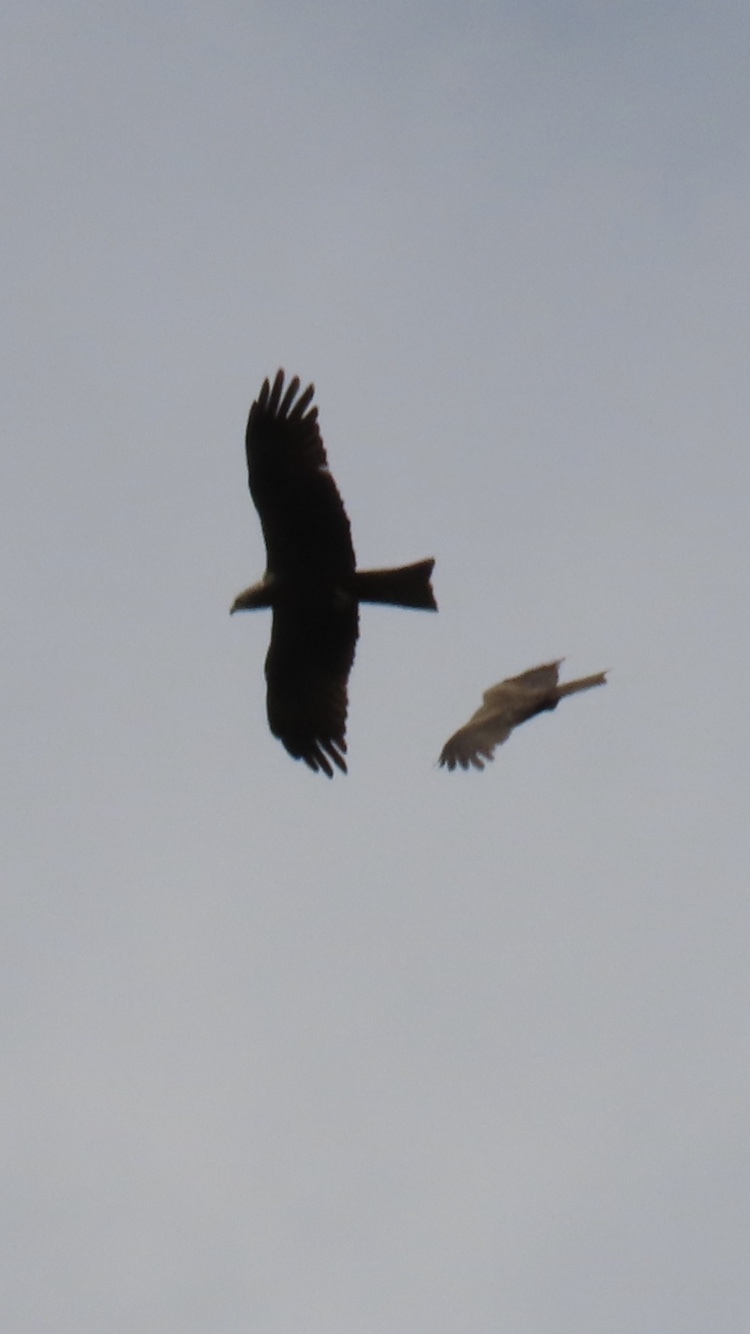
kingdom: Animalia
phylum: Chordata
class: Aves
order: Accipitriformes
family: Accipitridae
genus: Milvus
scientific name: Milvus migrans
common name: Black kite
